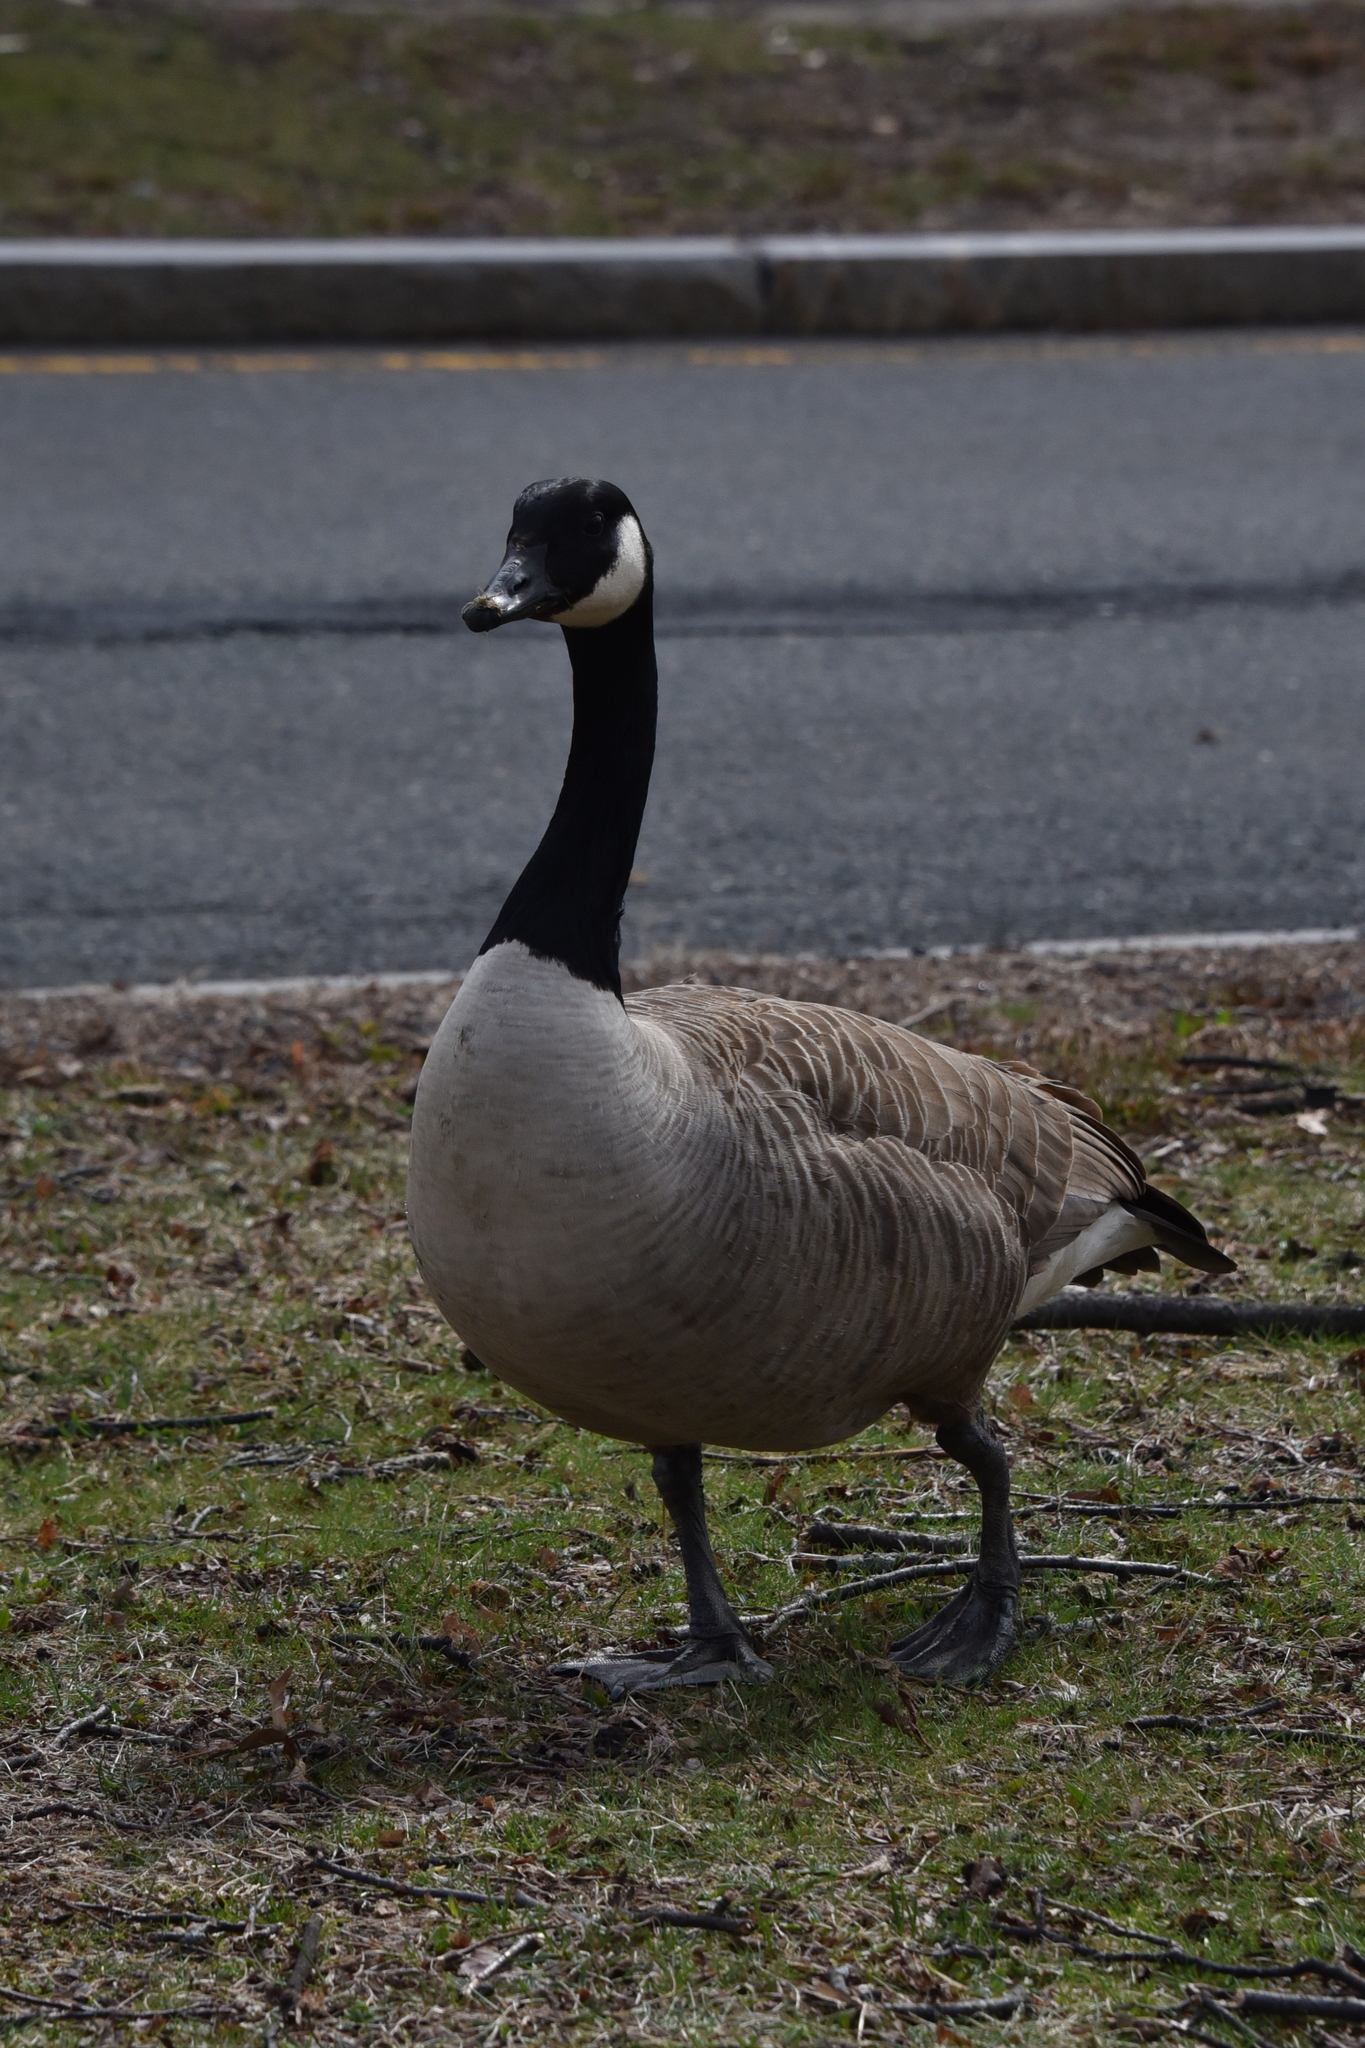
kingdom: Animalia
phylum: Chordata
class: Aves
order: Anseriformes
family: Anatidae
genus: Branta
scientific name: Branta canadensis
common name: Canada goose
